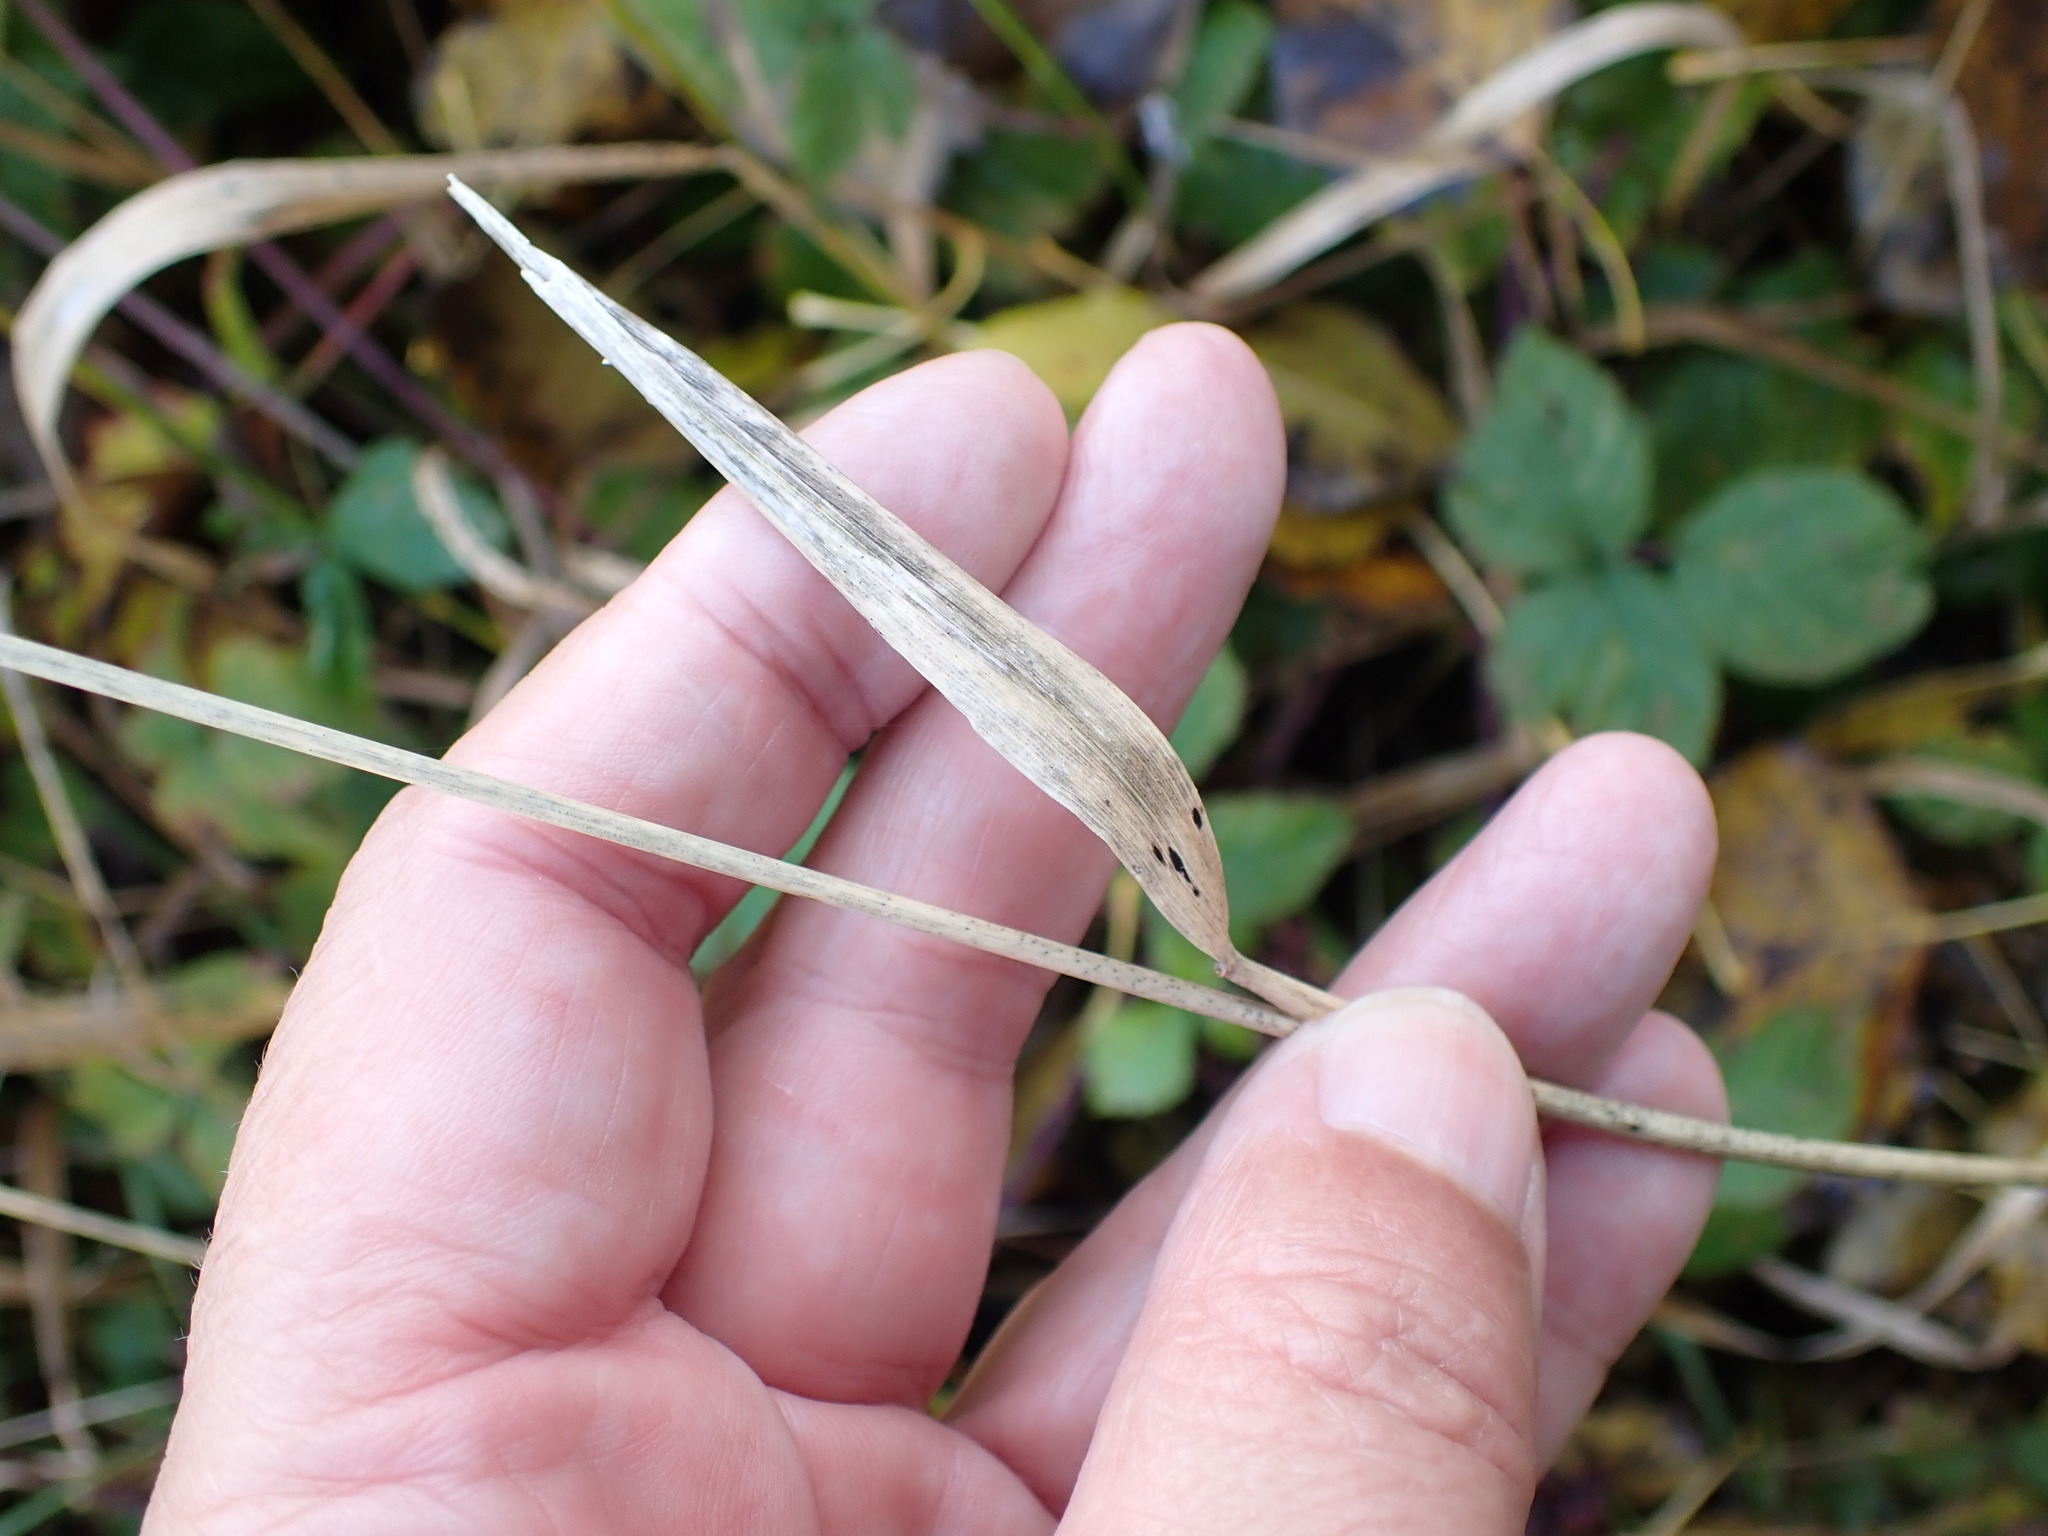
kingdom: Plantae
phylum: Tracheophyta
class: Liliopsida
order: Poales
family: Poaceae
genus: Elymus
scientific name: Elymus repens
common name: Quackgrass
